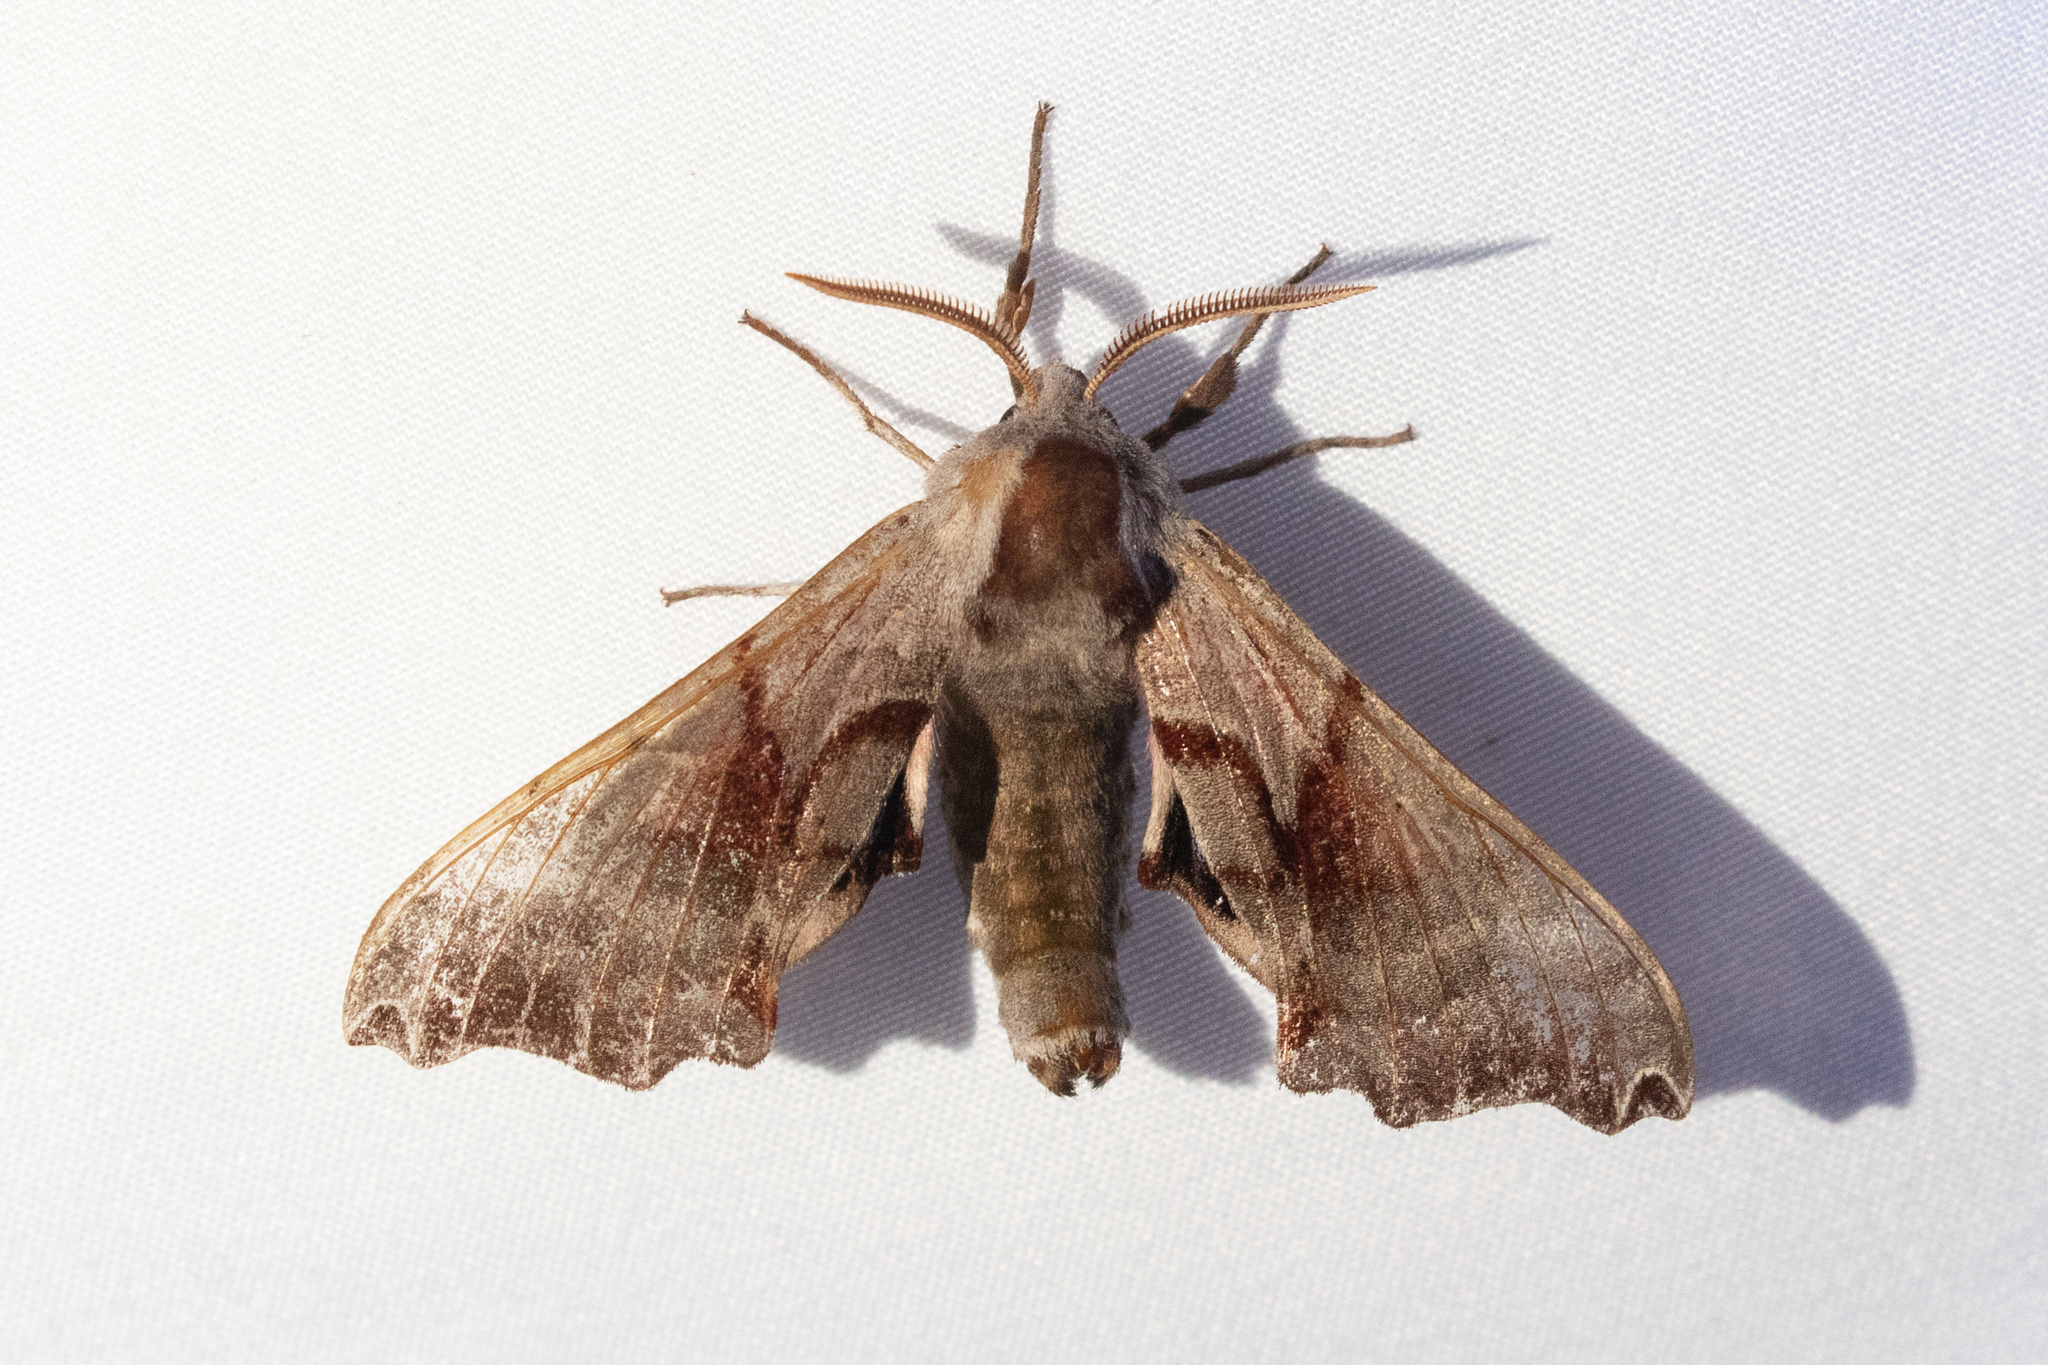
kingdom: Animalia
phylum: Arthropoda
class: Insecta
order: Lepidoptera
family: Sphingidae
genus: Smerinthus
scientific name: Smerinthus jamaicensis
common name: Twin spotted sphinx
